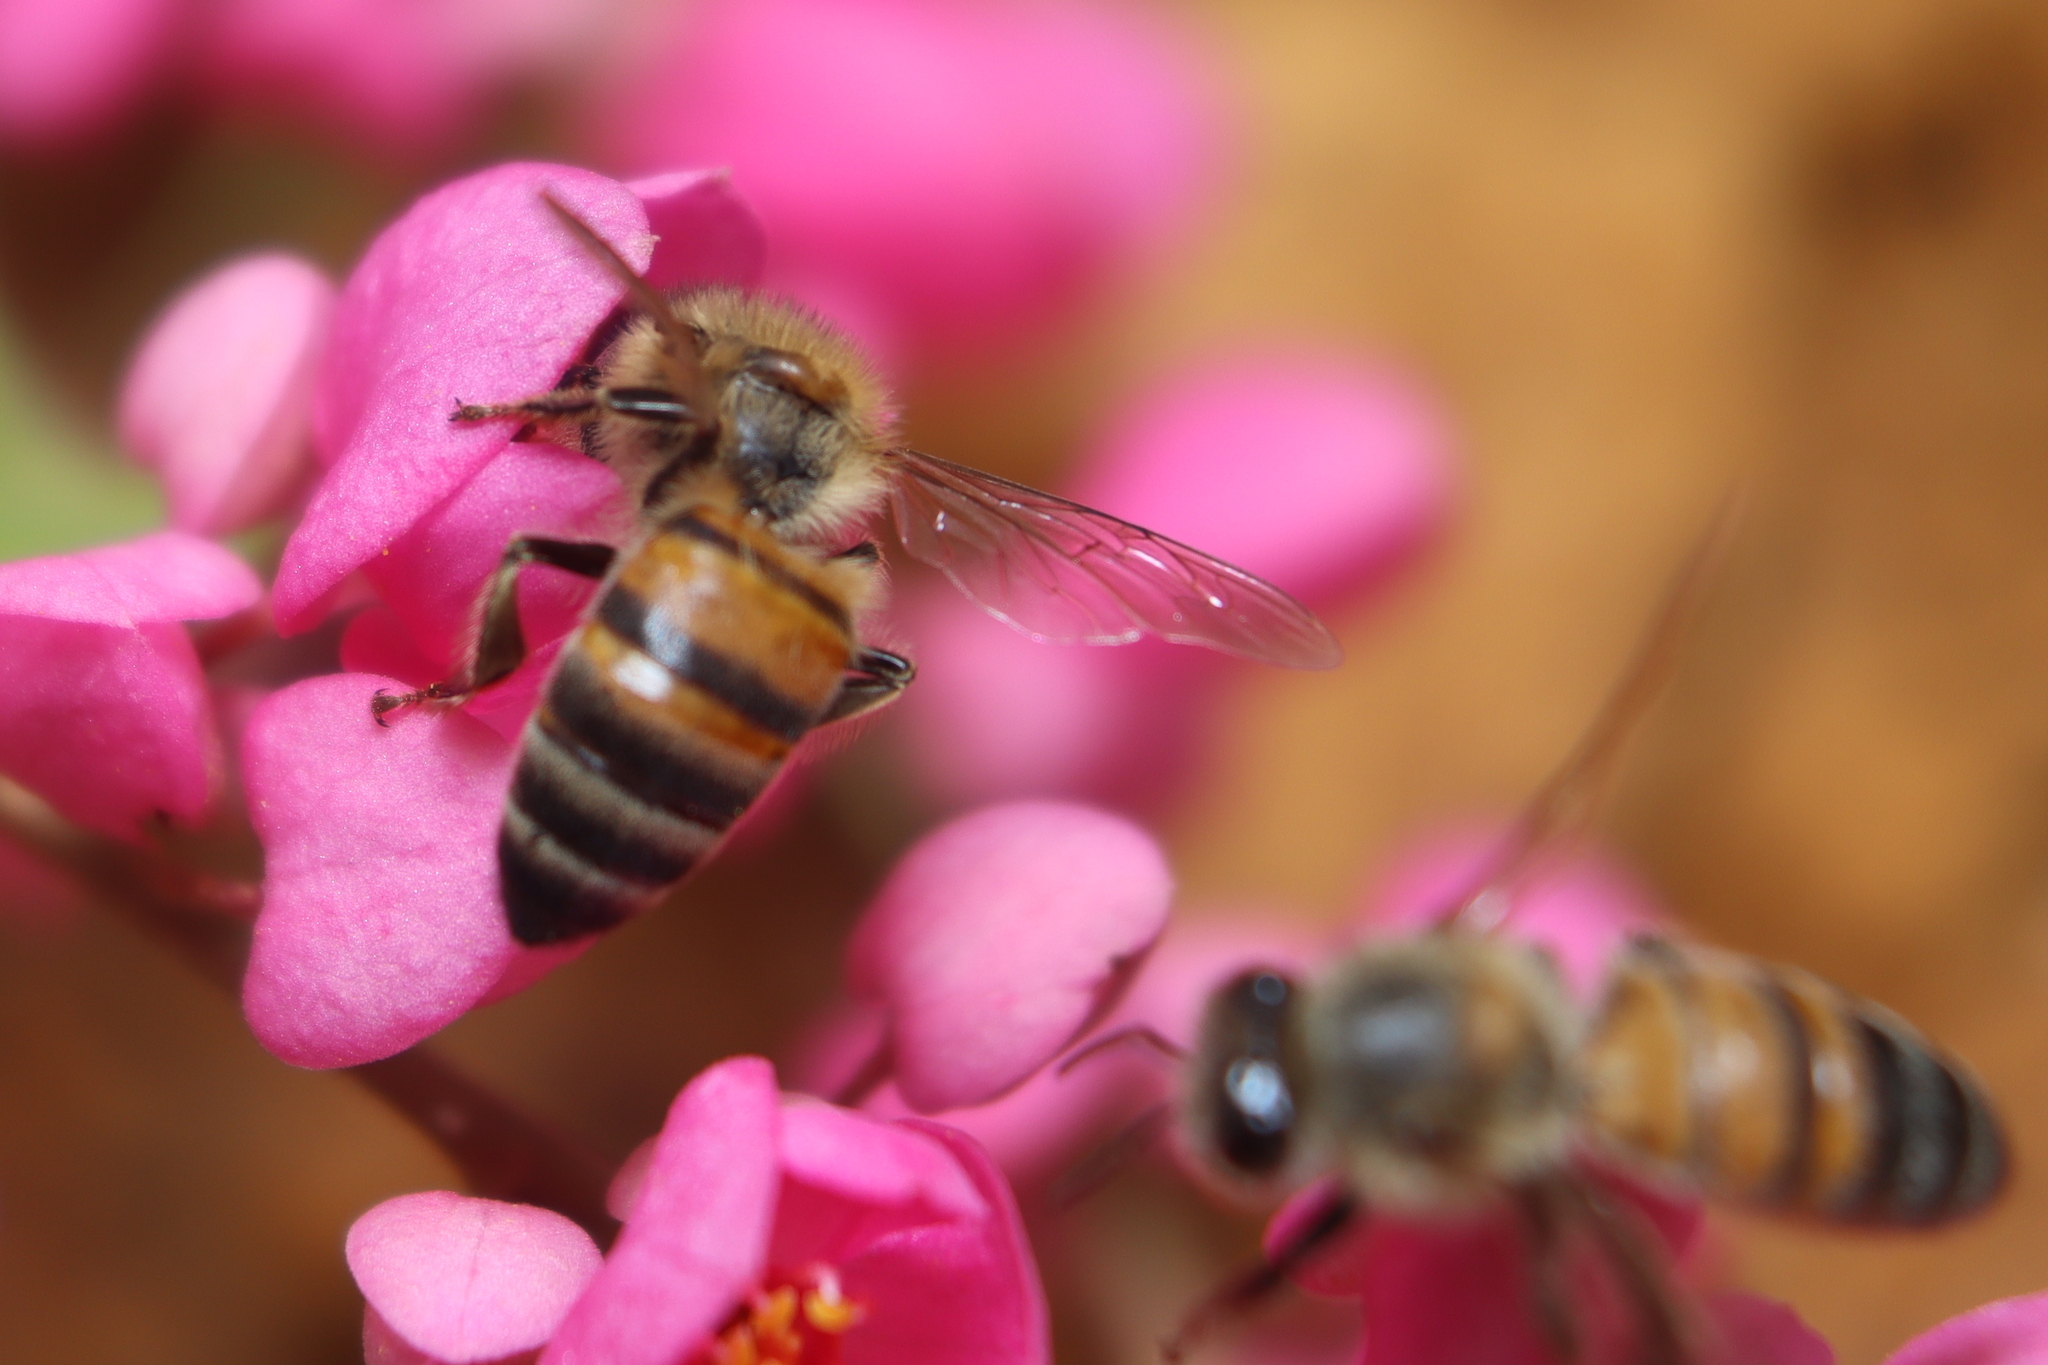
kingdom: Animalia
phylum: Arthropoda
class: Insecta
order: Hymenoptera
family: Apidae
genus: Apis
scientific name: Apis mellifera
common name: Honey bee
